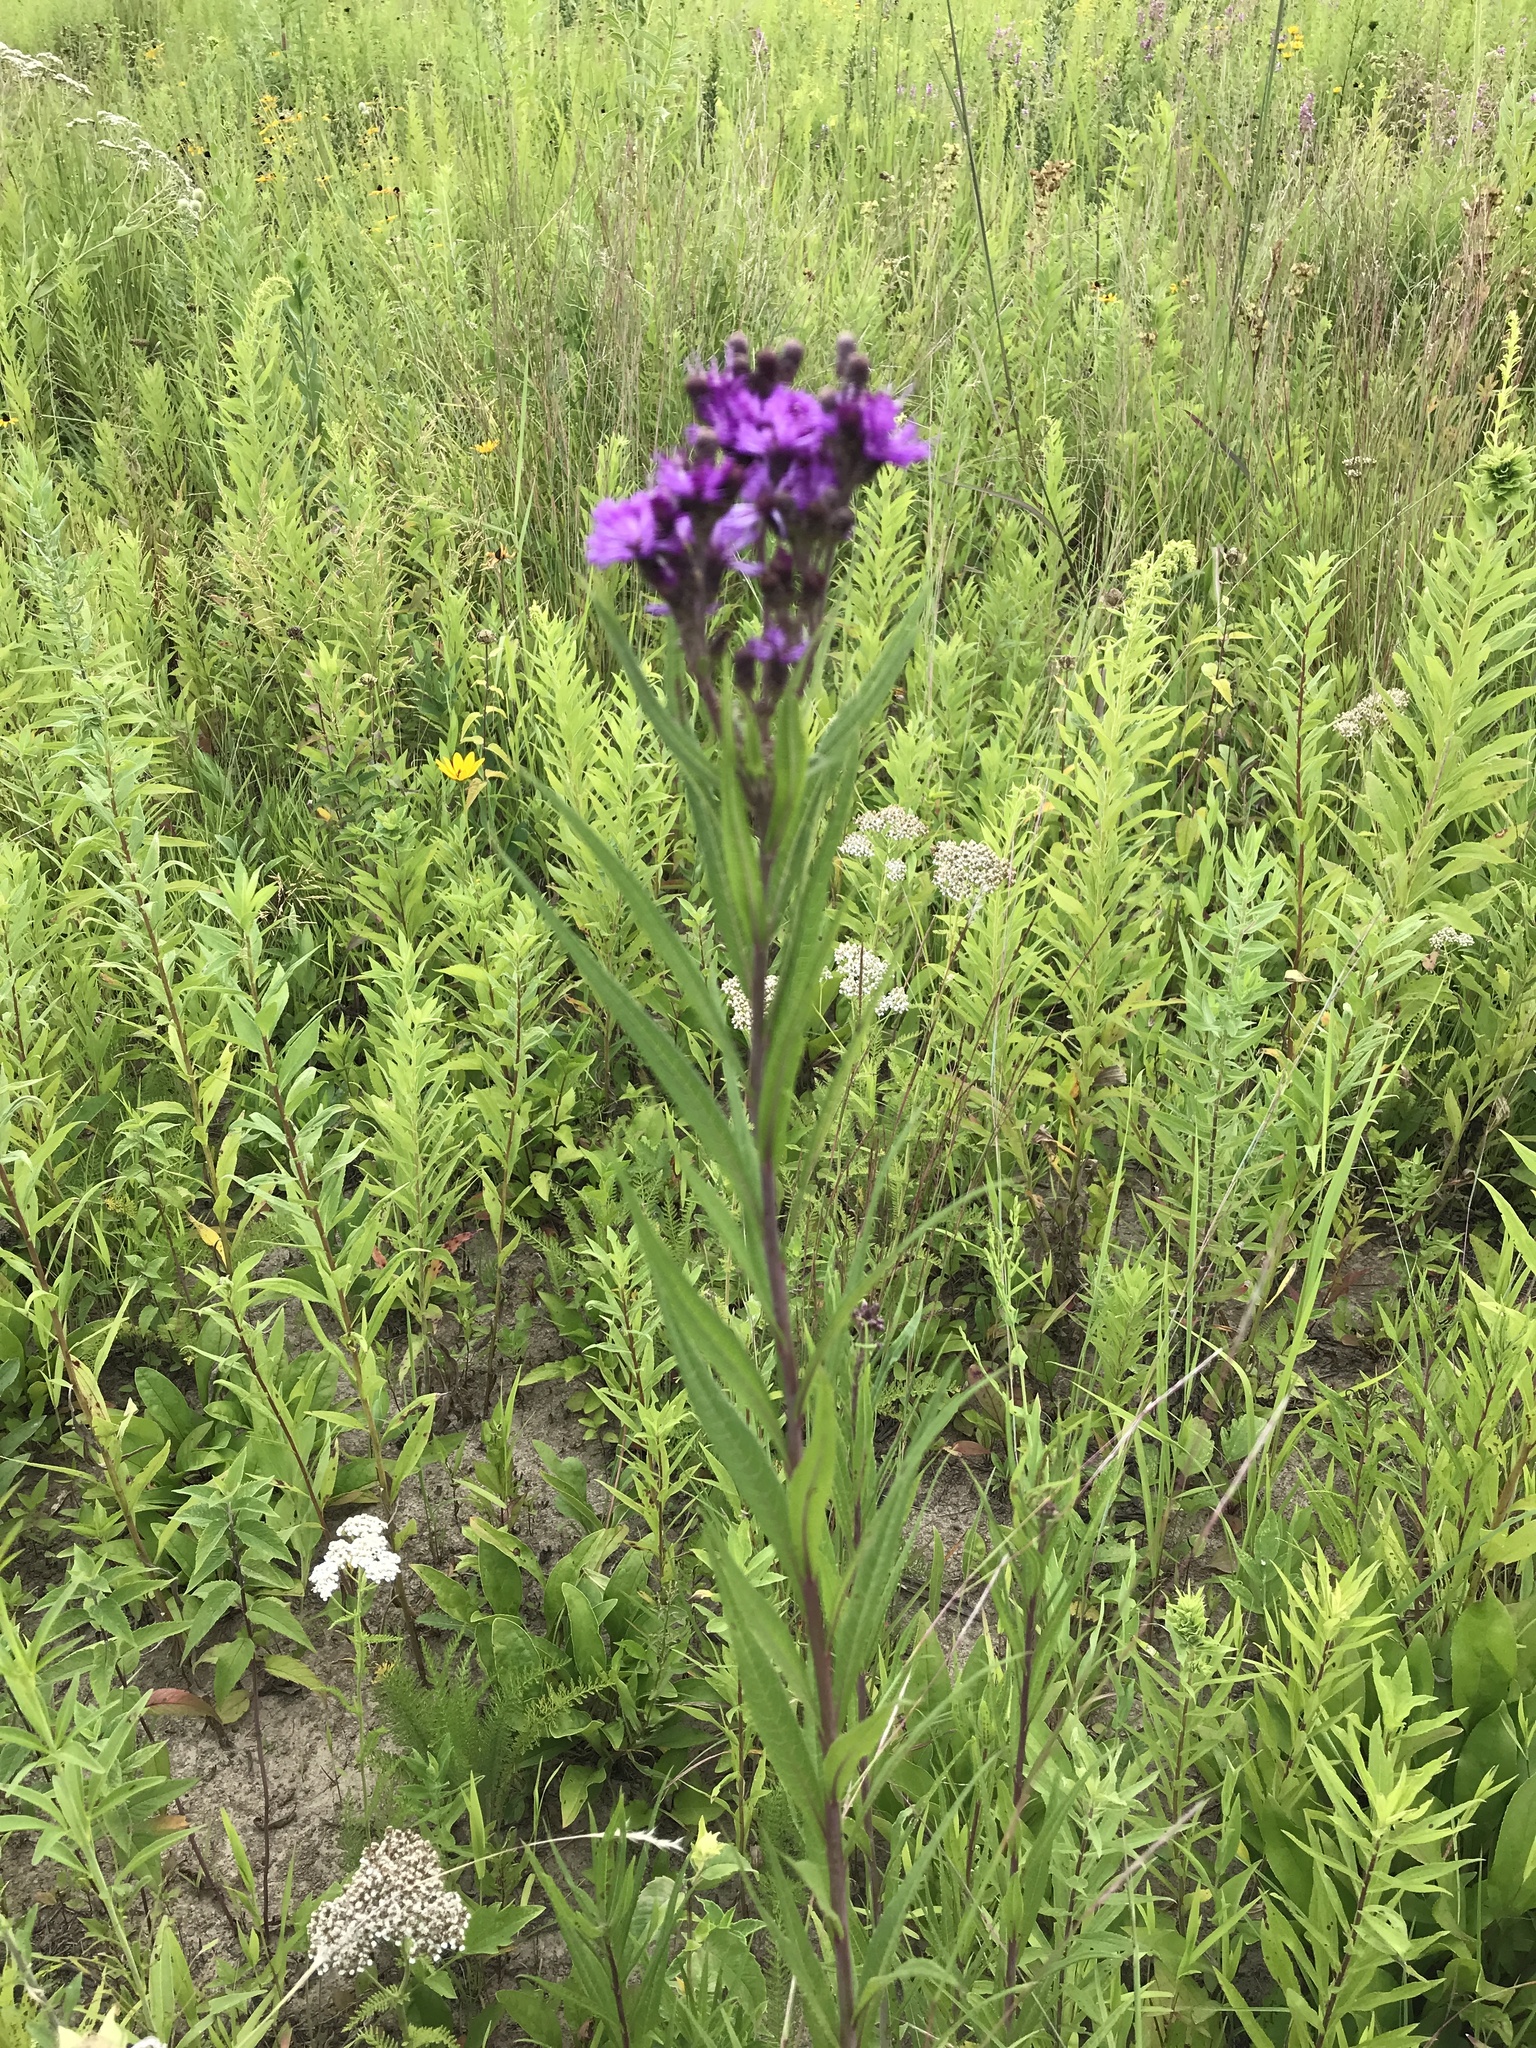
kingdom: Plantae
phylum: Tracheophyta
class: Magnoliopsida
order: Asterales
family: Asteraceae
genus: Vernonia
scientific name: Vernonia fasciculata
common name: Fascicled ironweed
